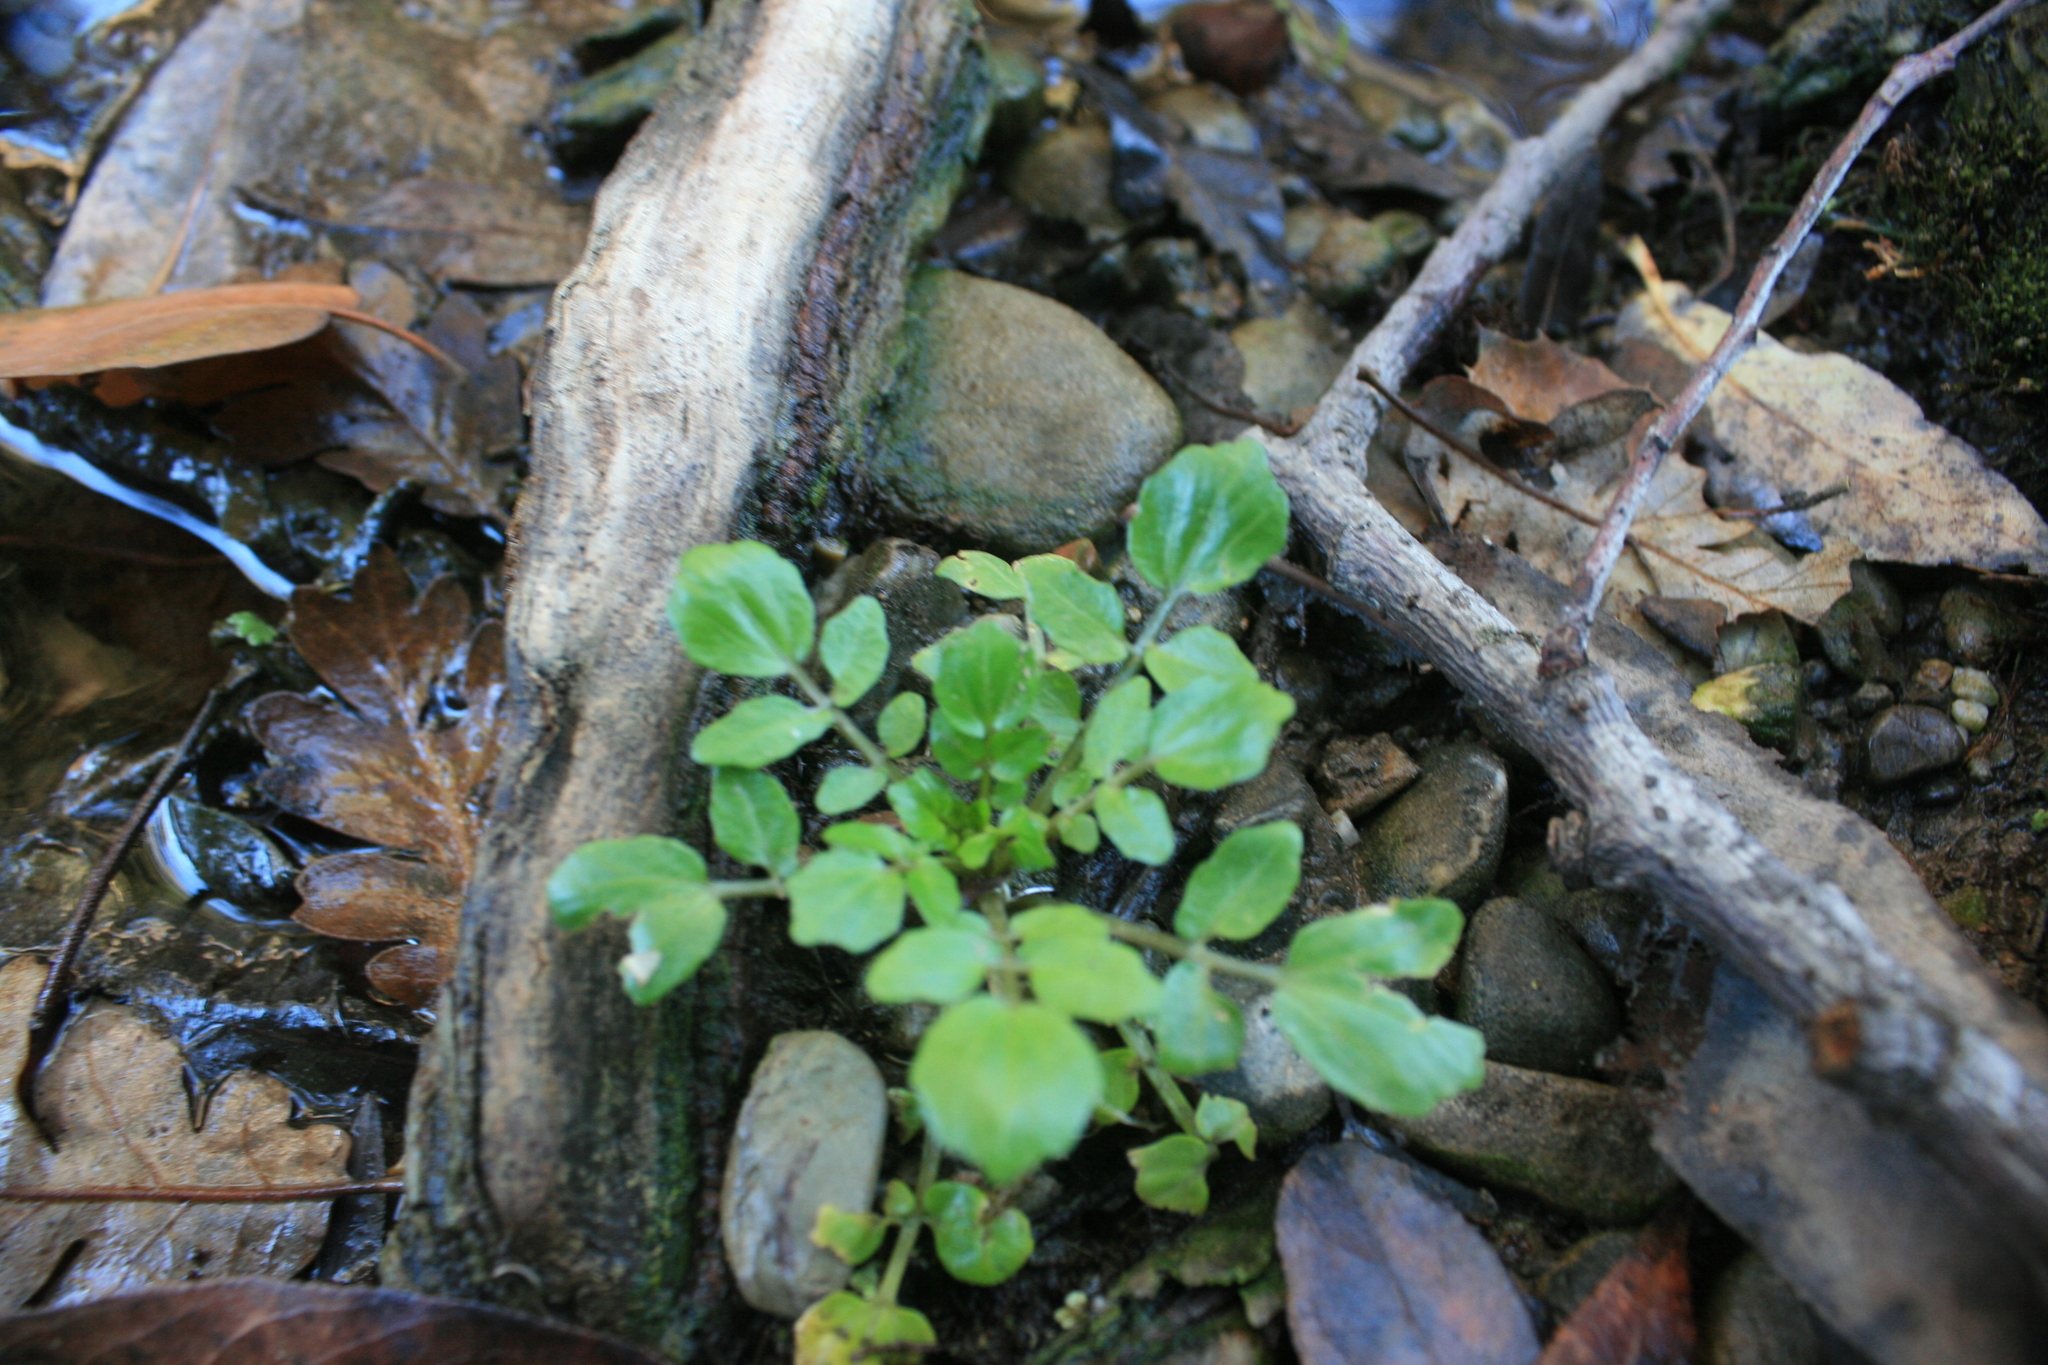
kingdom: Plantae
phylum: Tracheophyta
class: Magnoliopsida
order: Brassicales
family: Brassicaceae
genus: Nasturtium
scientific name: Nasturtium officinale
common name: Watercress
